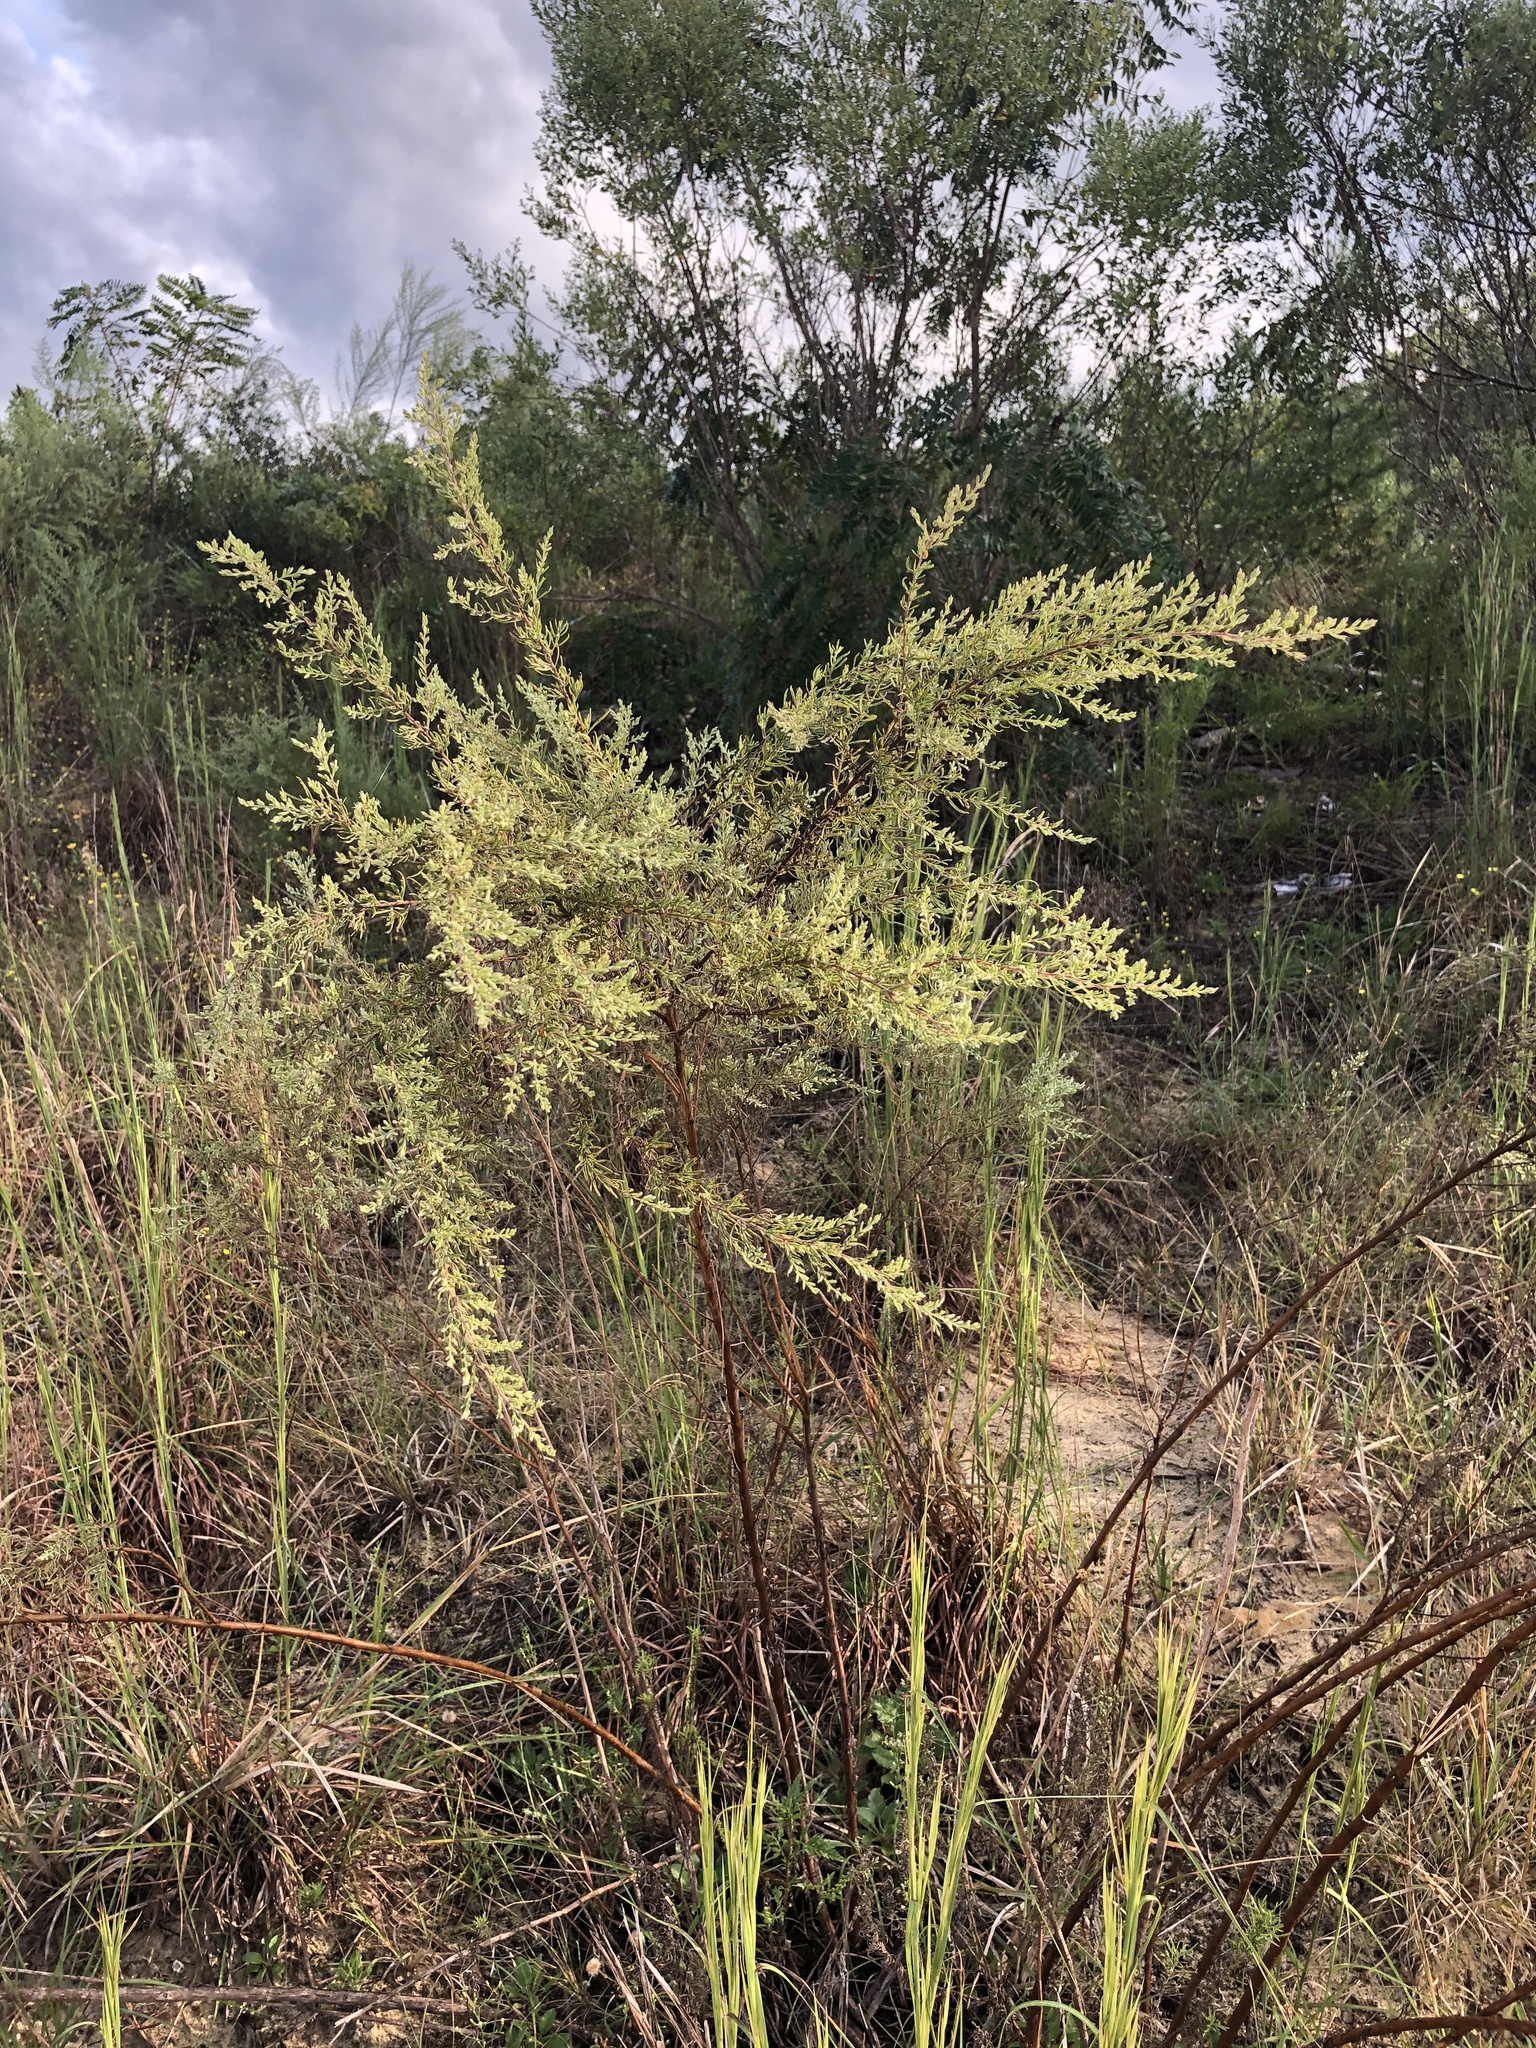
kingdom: Plantae
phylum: Tracheophyta
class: Magnoliopsida
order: Asterales
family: Asteraceae
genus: Eupatorium
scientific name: Eupatorium compositifolium
